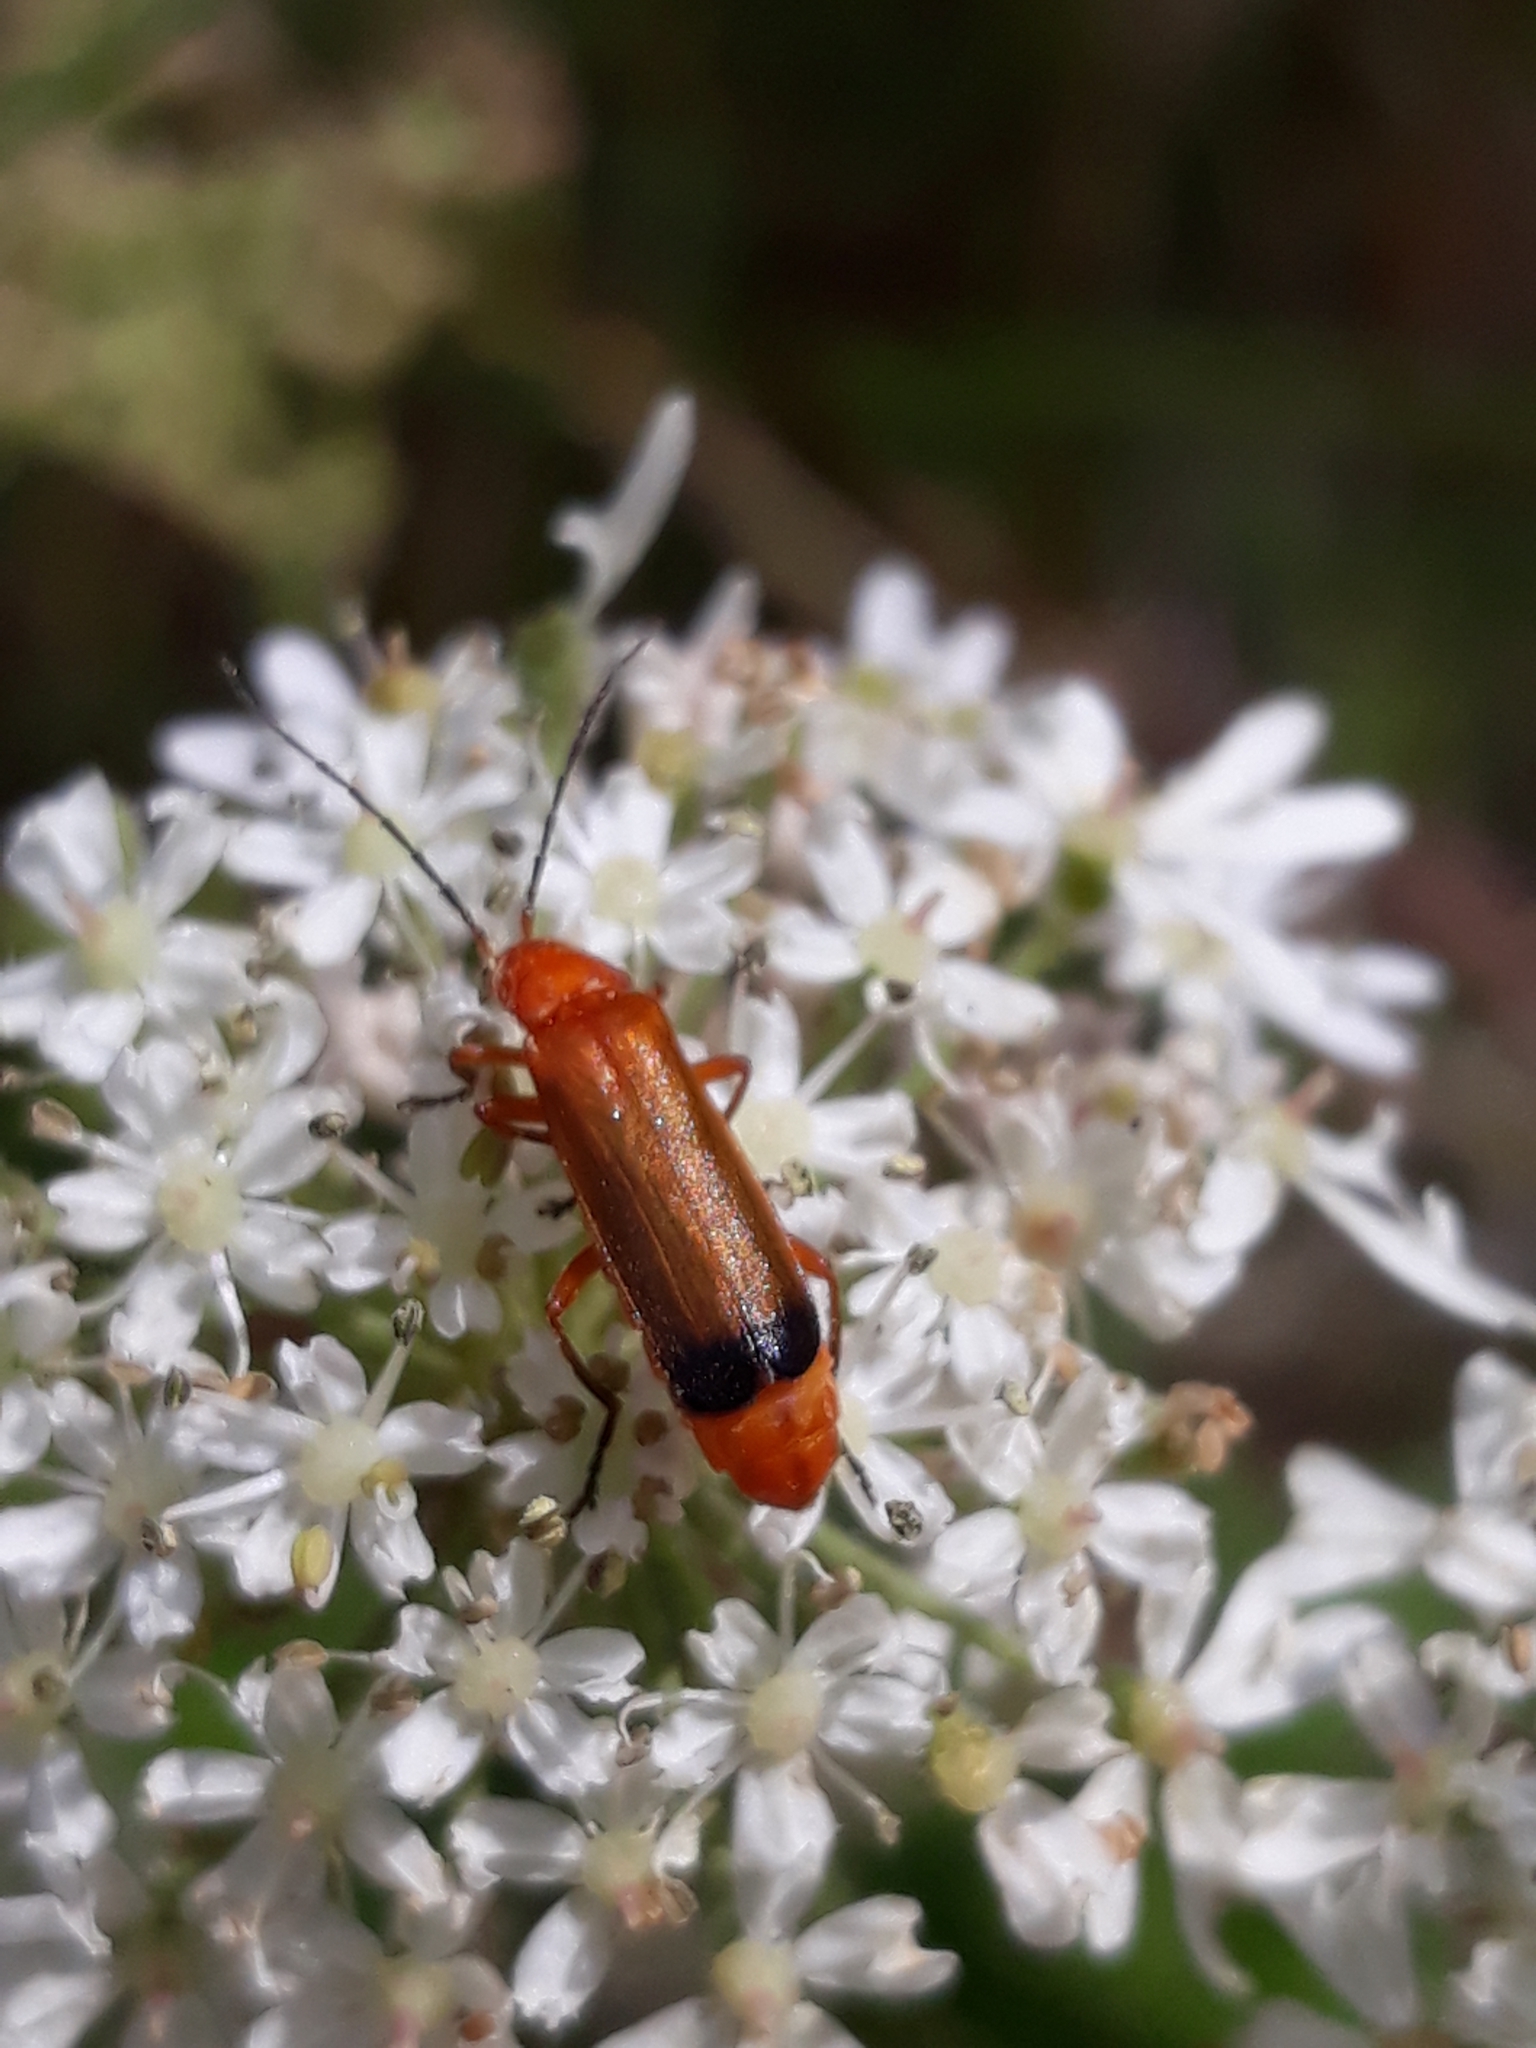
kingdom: Animalia
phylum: Arthropoda
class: Insecta
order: Coleoptera
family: Cantharidae
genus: Rhagonycha
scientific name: Rhagonycha fulva
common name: Common red soldier beetle
